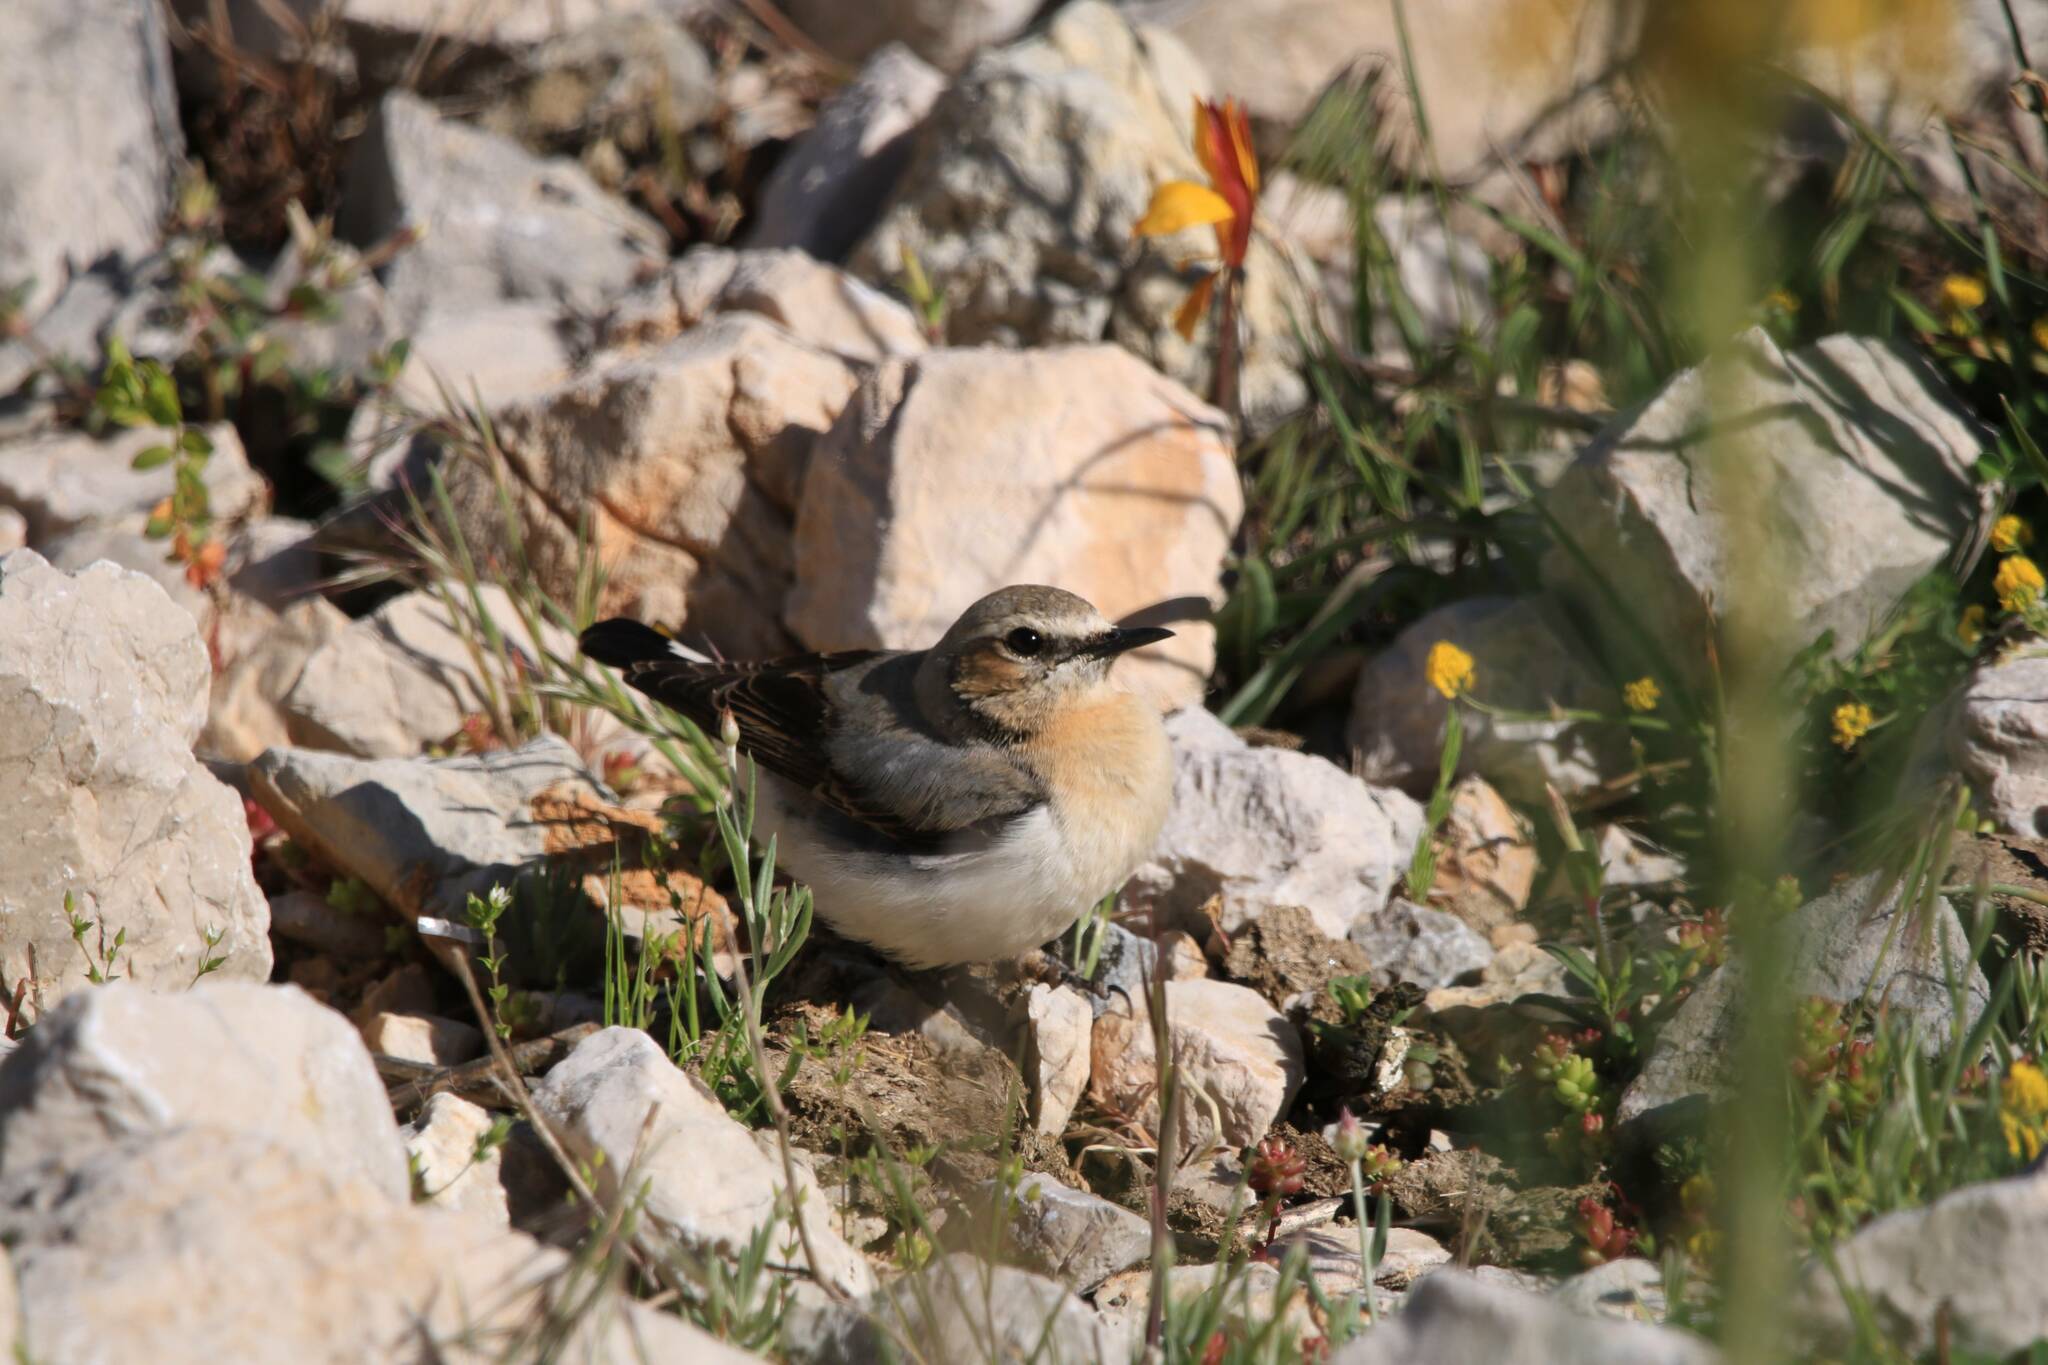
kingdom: Animalia
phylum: Chordata
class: Aves
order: Passeriformes
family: Muscicapidae
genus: Oenanthe
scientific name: Oenanthe oenanthe
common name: Northern wheatear
